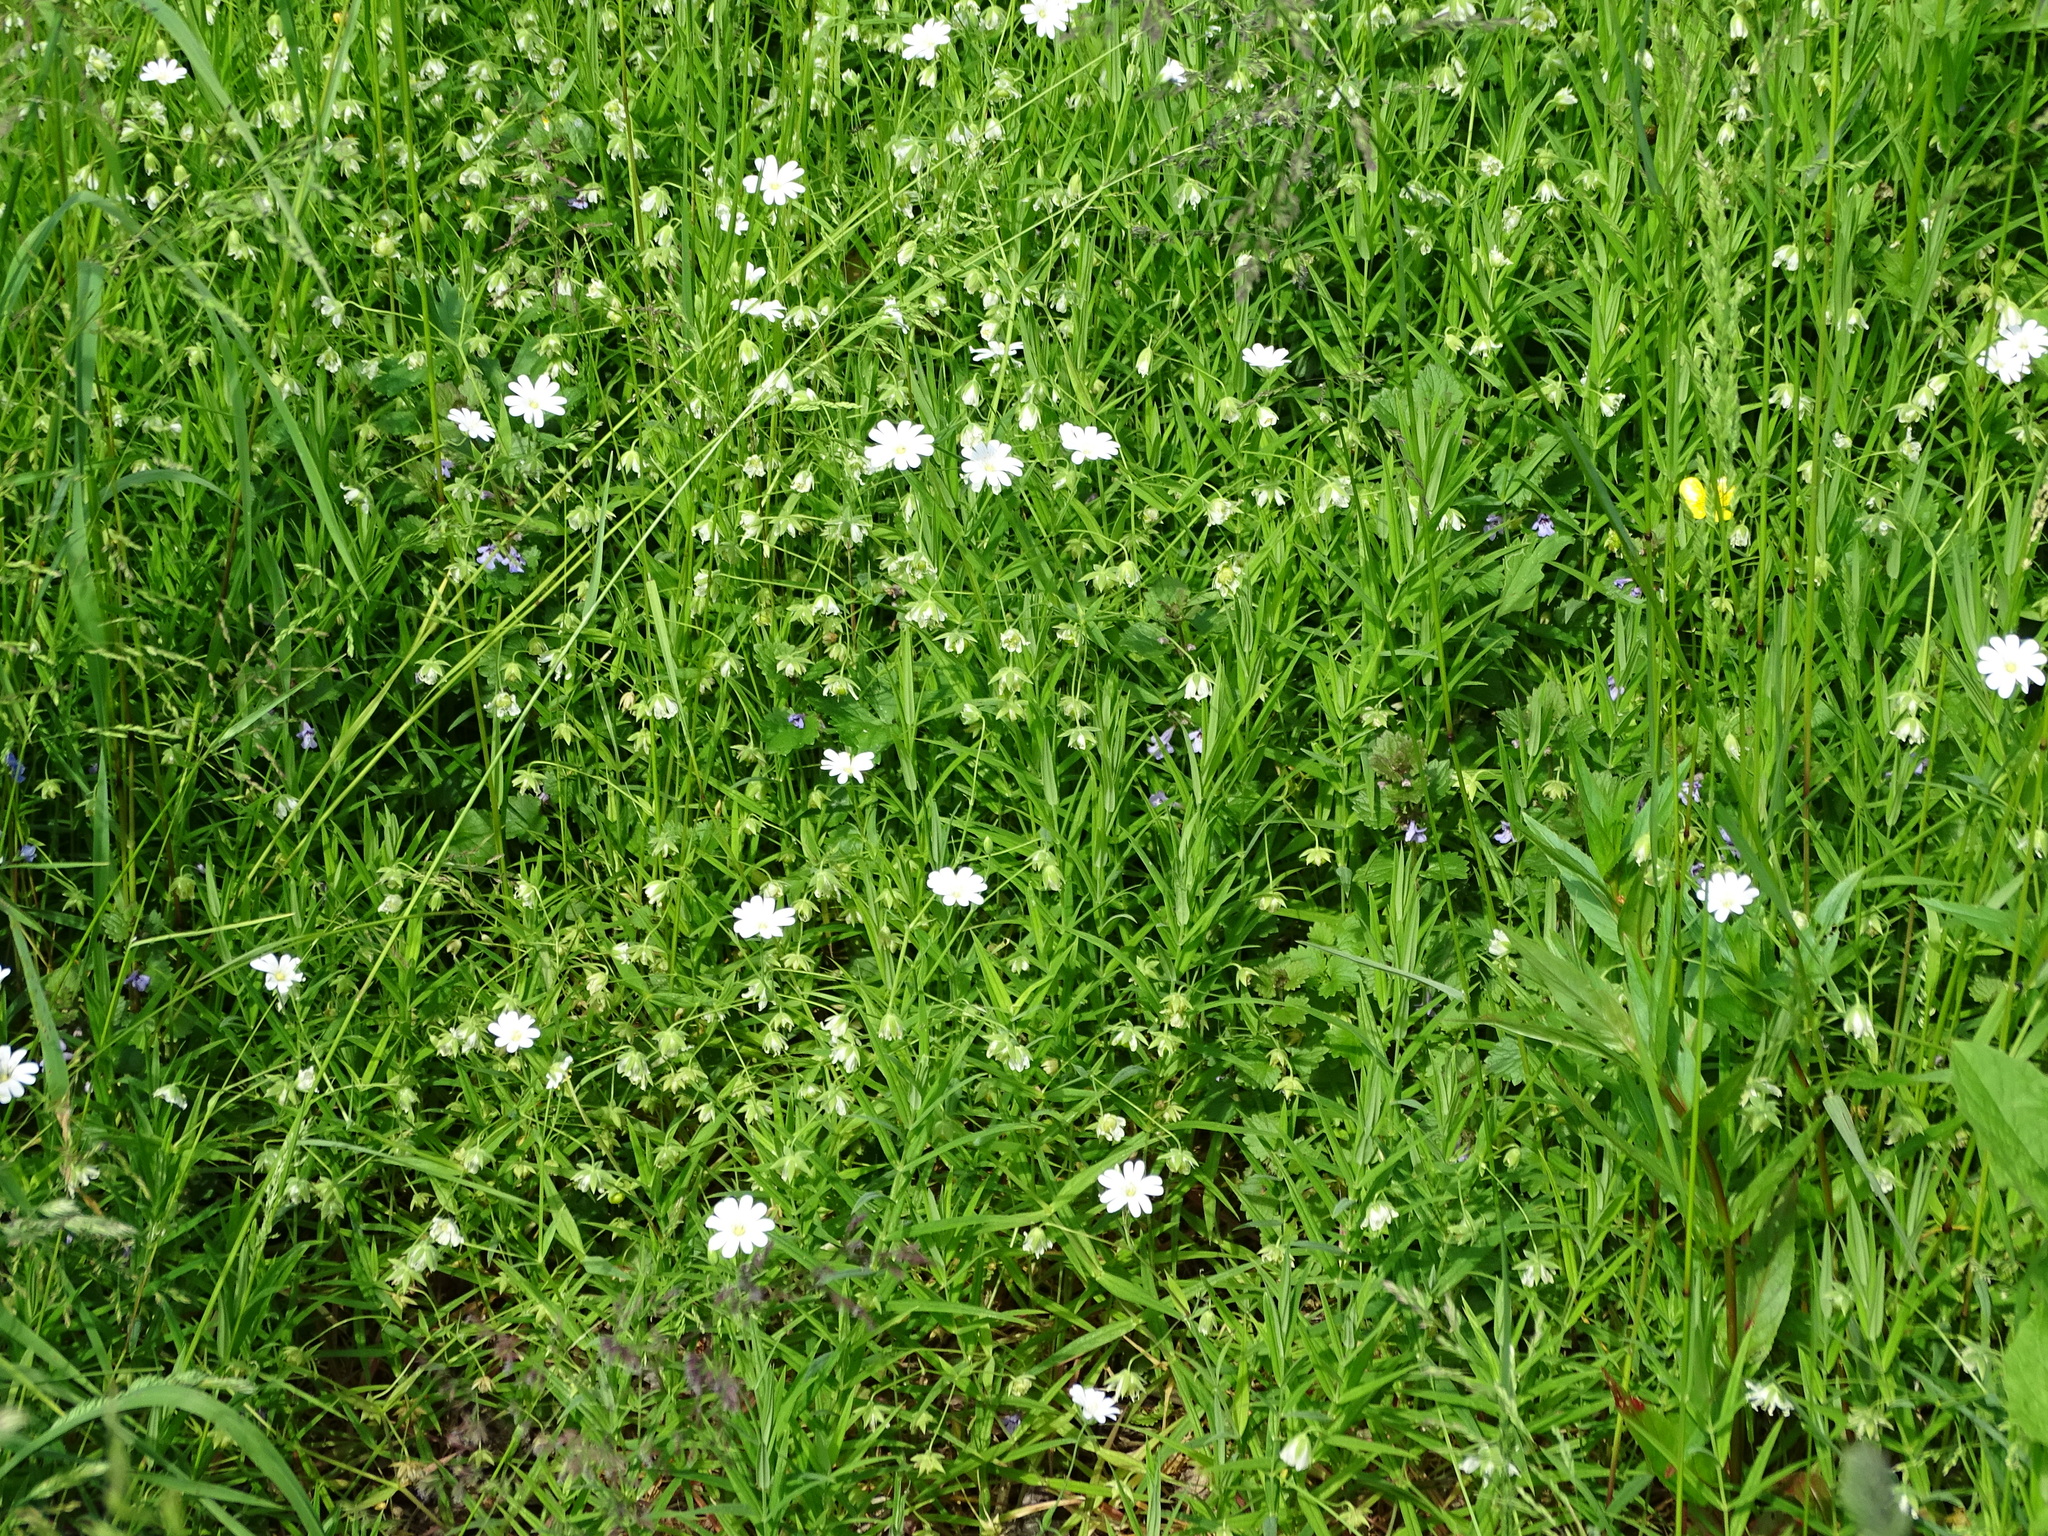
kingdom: Plantae
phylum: Tracheophyta
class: Magnoliopsida
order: Caryophyllales
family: Caryophyllaceae
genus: Rabelera
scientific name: Rabelera holostea
